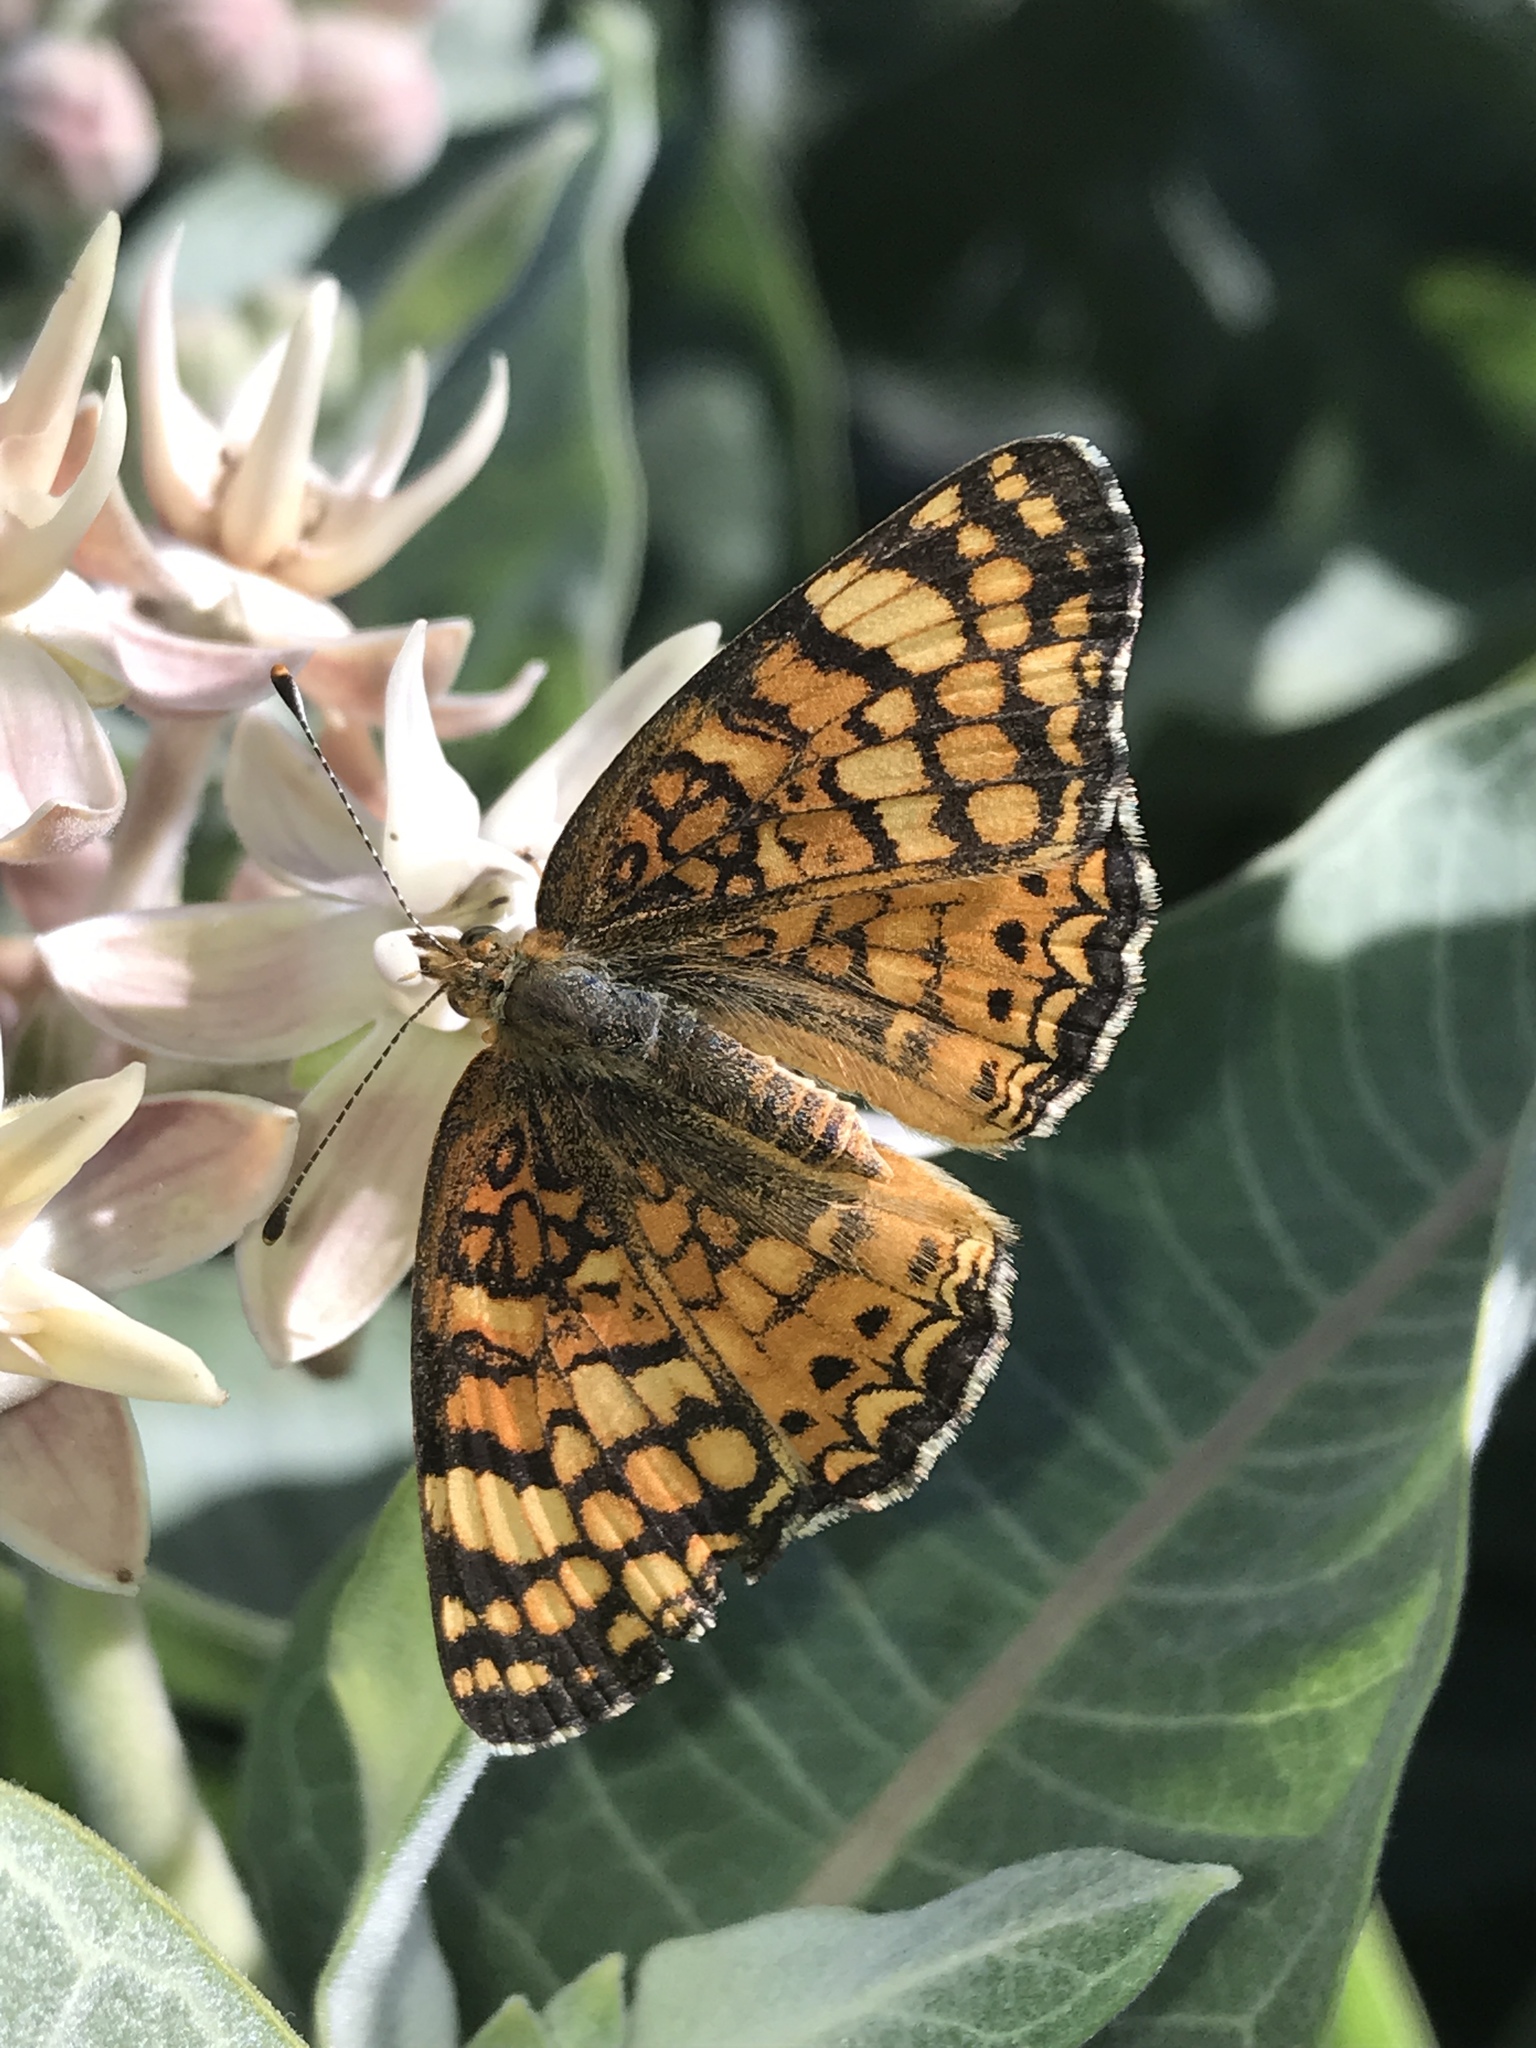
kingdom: Animalia
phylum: Arthropoda
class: Insecta
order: Lepidoptera
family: Nymphalidae
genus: Eresia
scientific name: Eresia aveyrona
